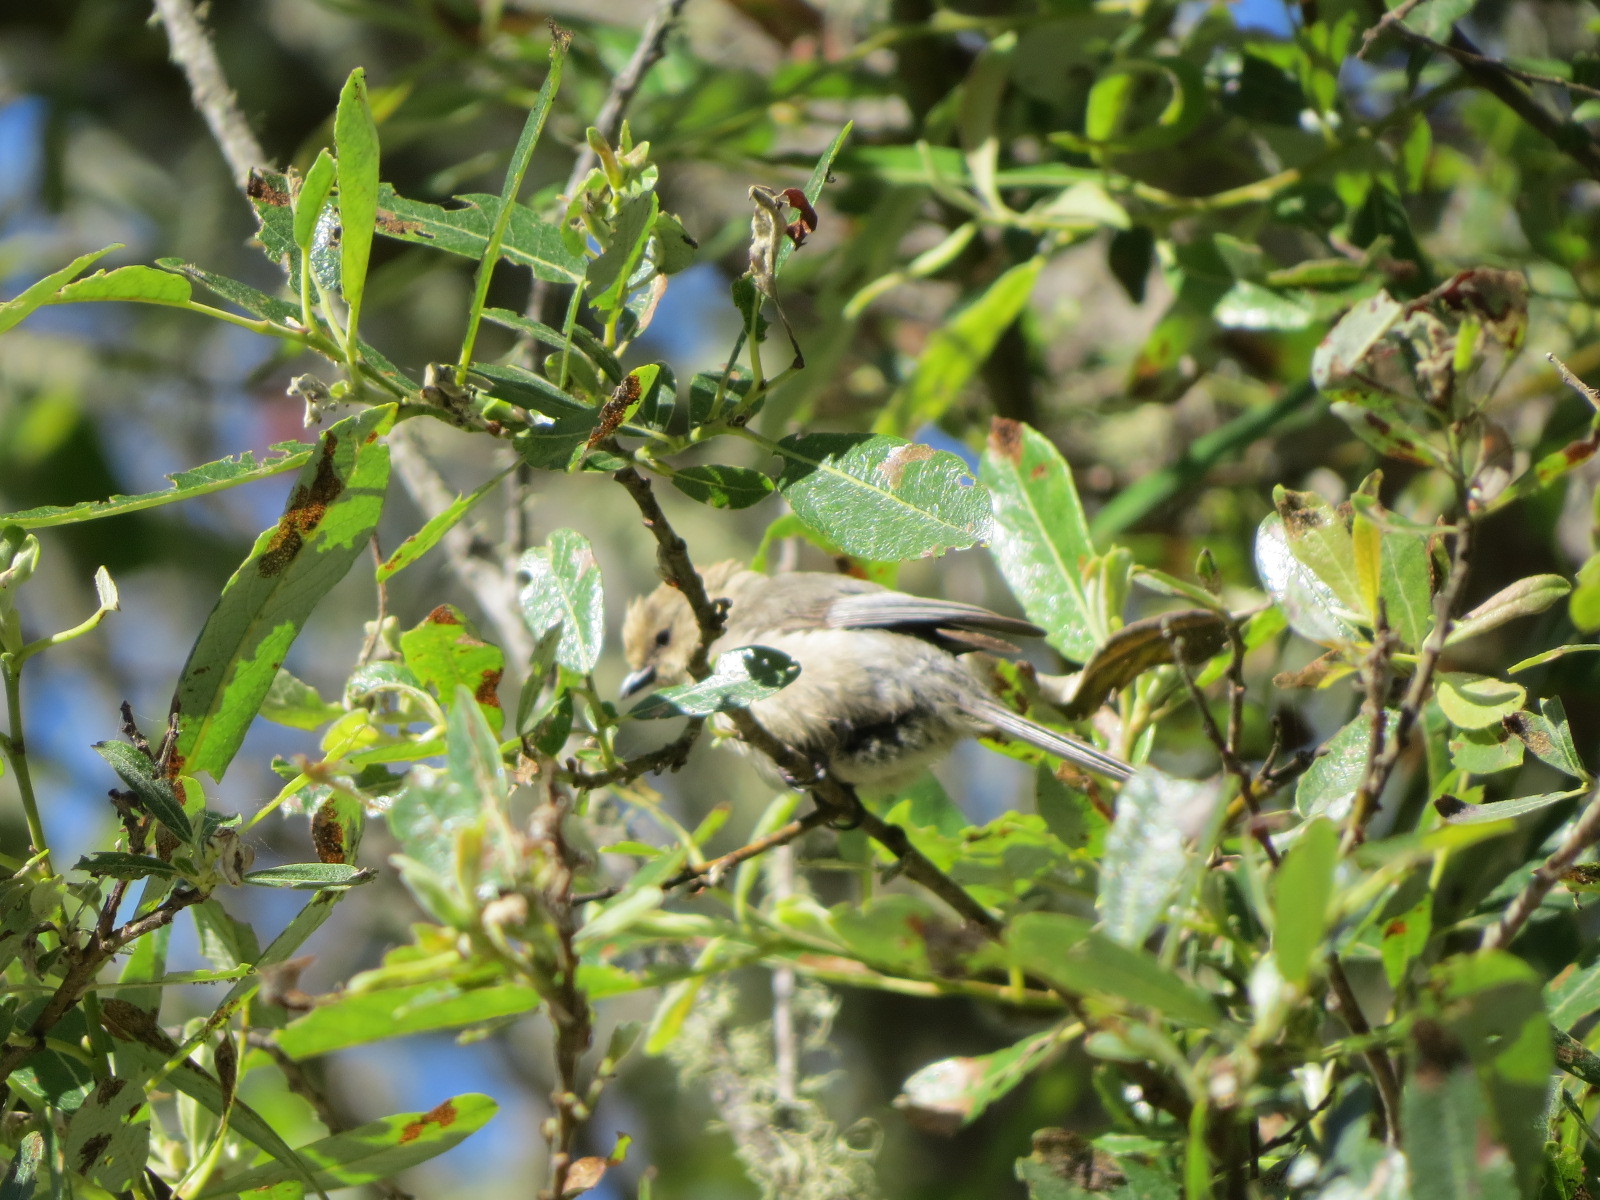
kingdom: Animalia
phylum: Chordata
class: Aves
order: Passeriformes
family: Aegithalidae
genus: Psaltriparus
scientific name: Psaltriparus minimus
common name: American bushtit
